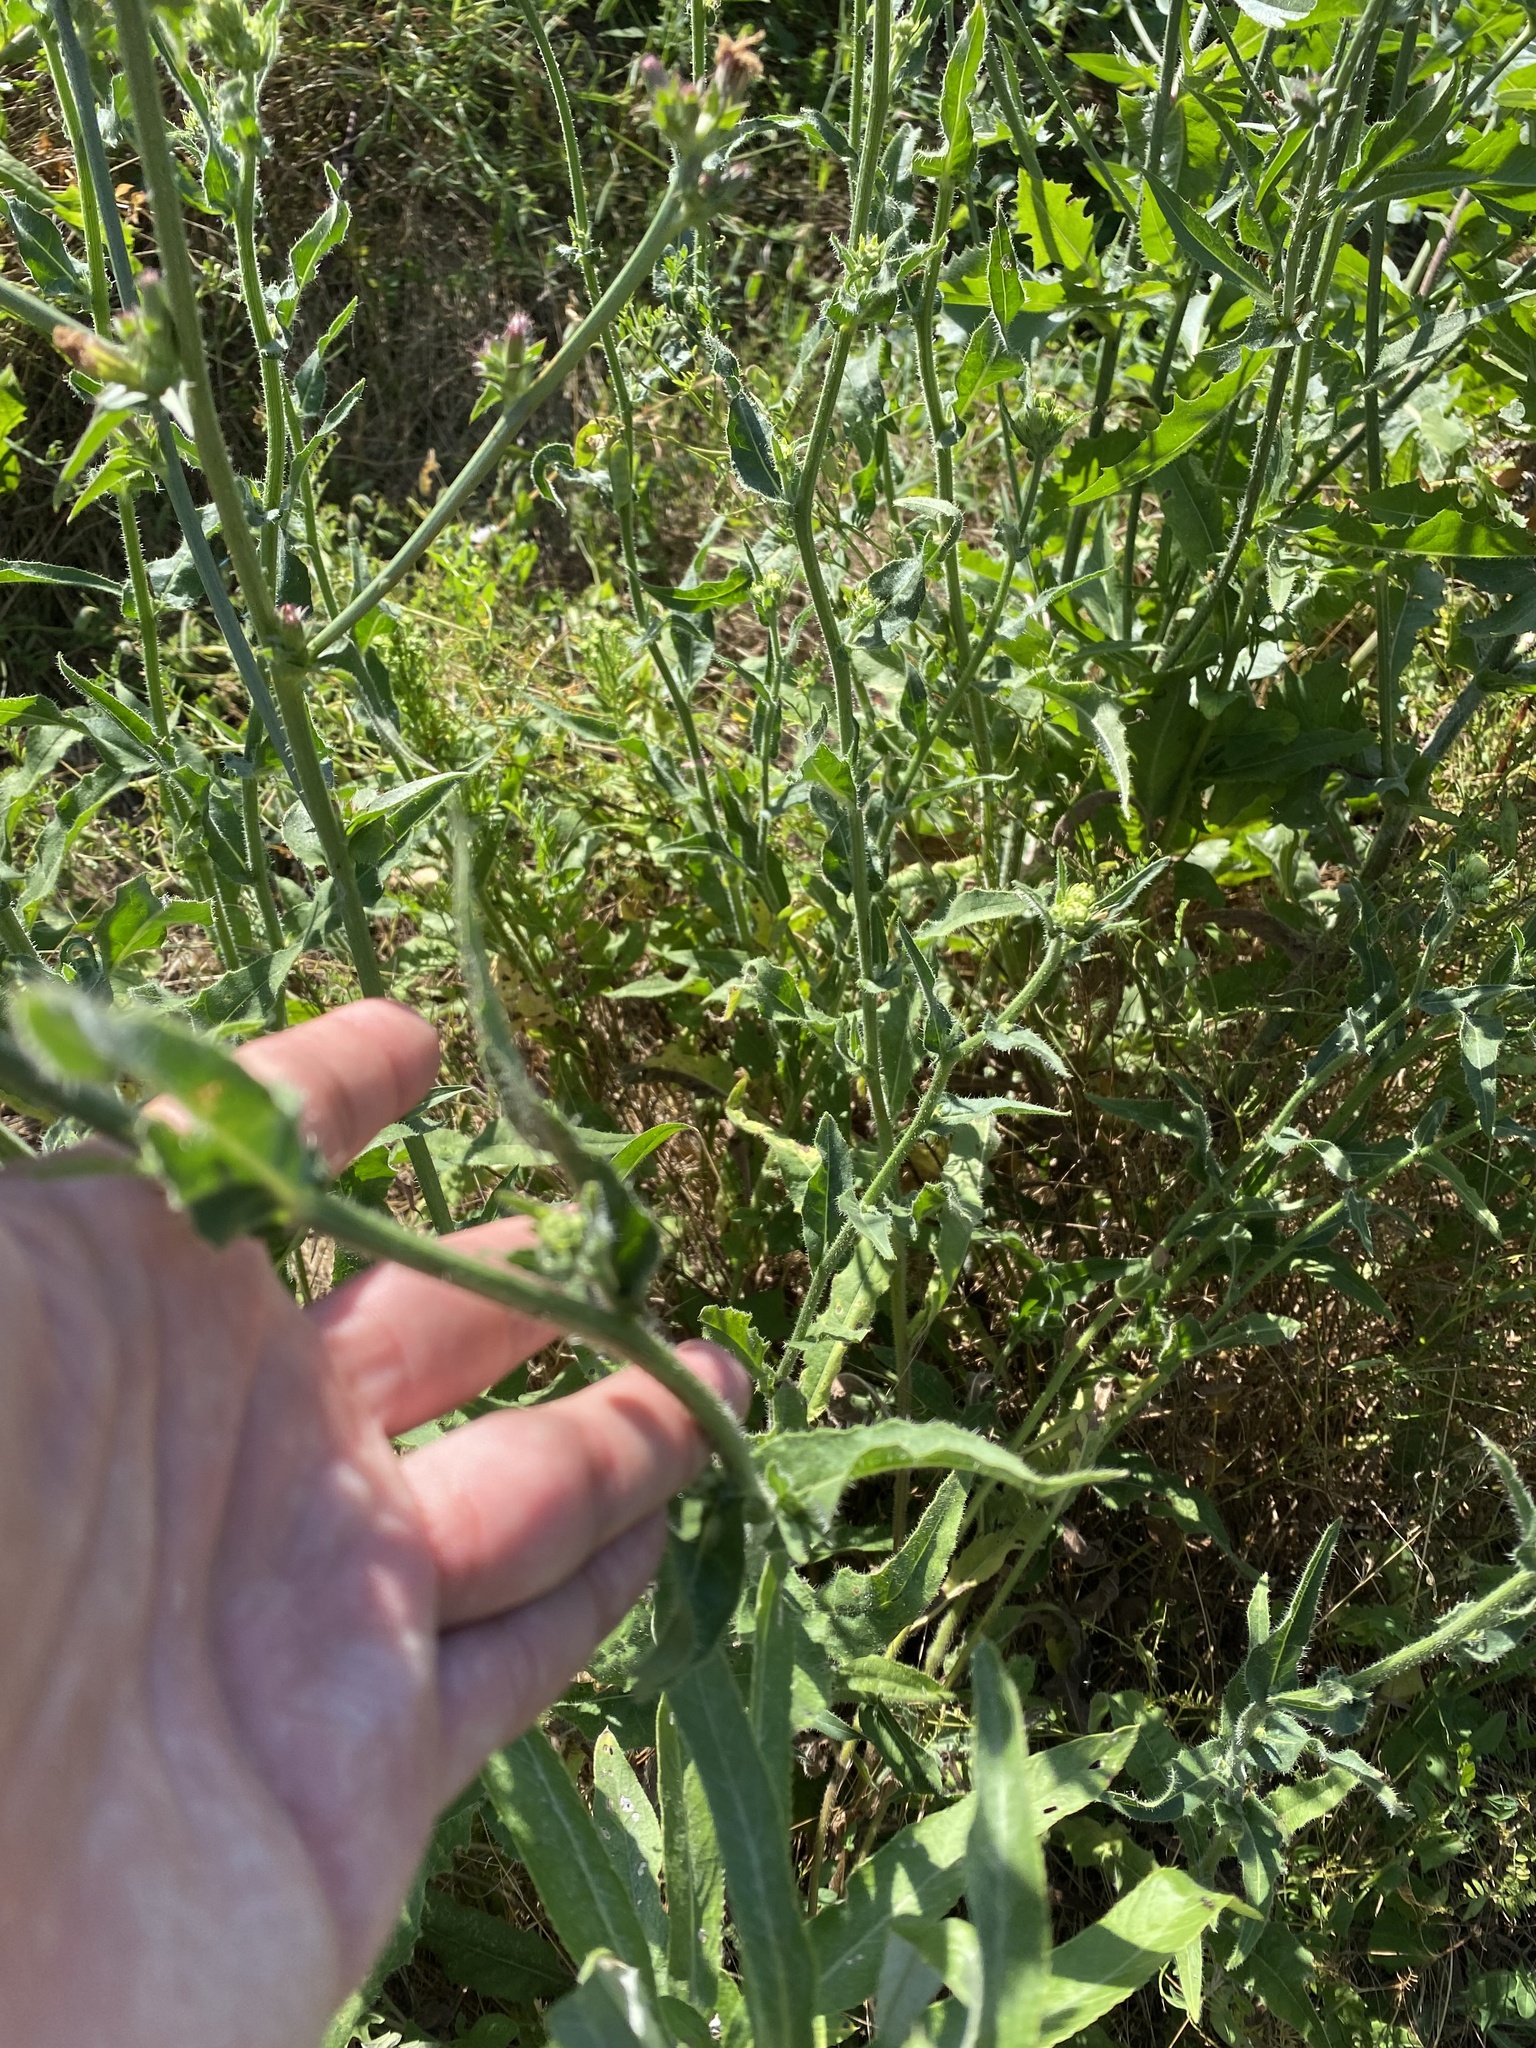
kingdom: Plantae
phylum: Tracheophyta
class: Magnoliopsida
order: Asterales
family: Asteraceae
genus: Picris
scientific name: Picris hieracioides
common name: Hawkweed oxtongue
